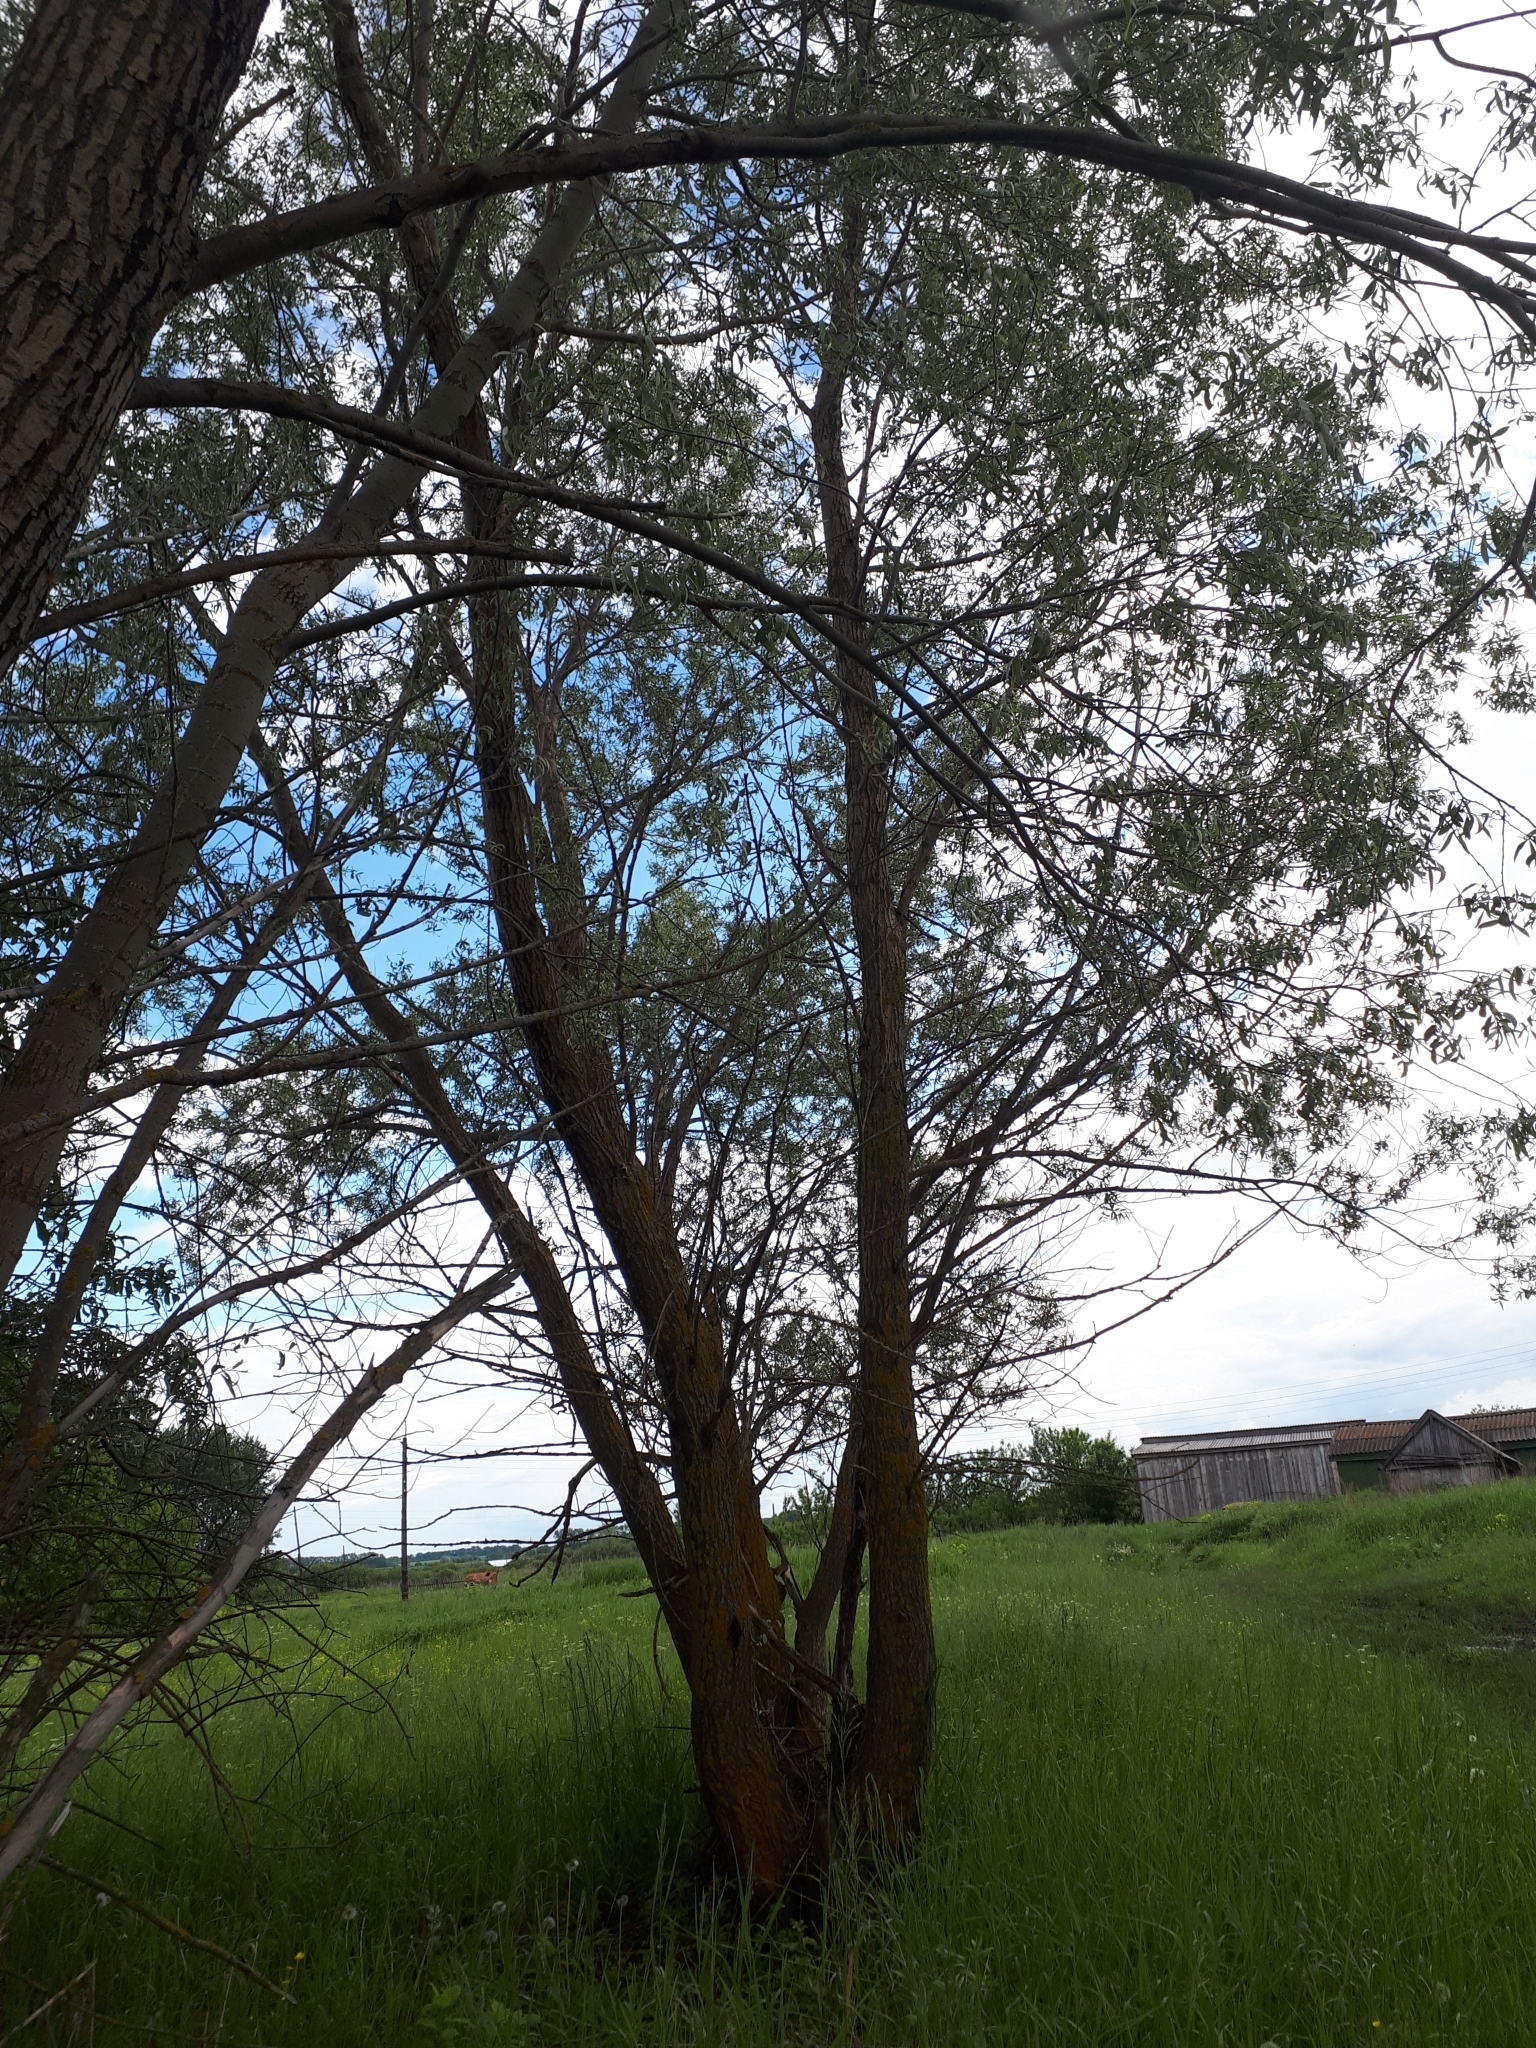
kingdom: Plantae
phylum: Tracheophyta
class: Magnoliopsida
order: Malpighiales
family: Salicaceae
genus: Salix
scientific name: Salix alba
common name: White willow
